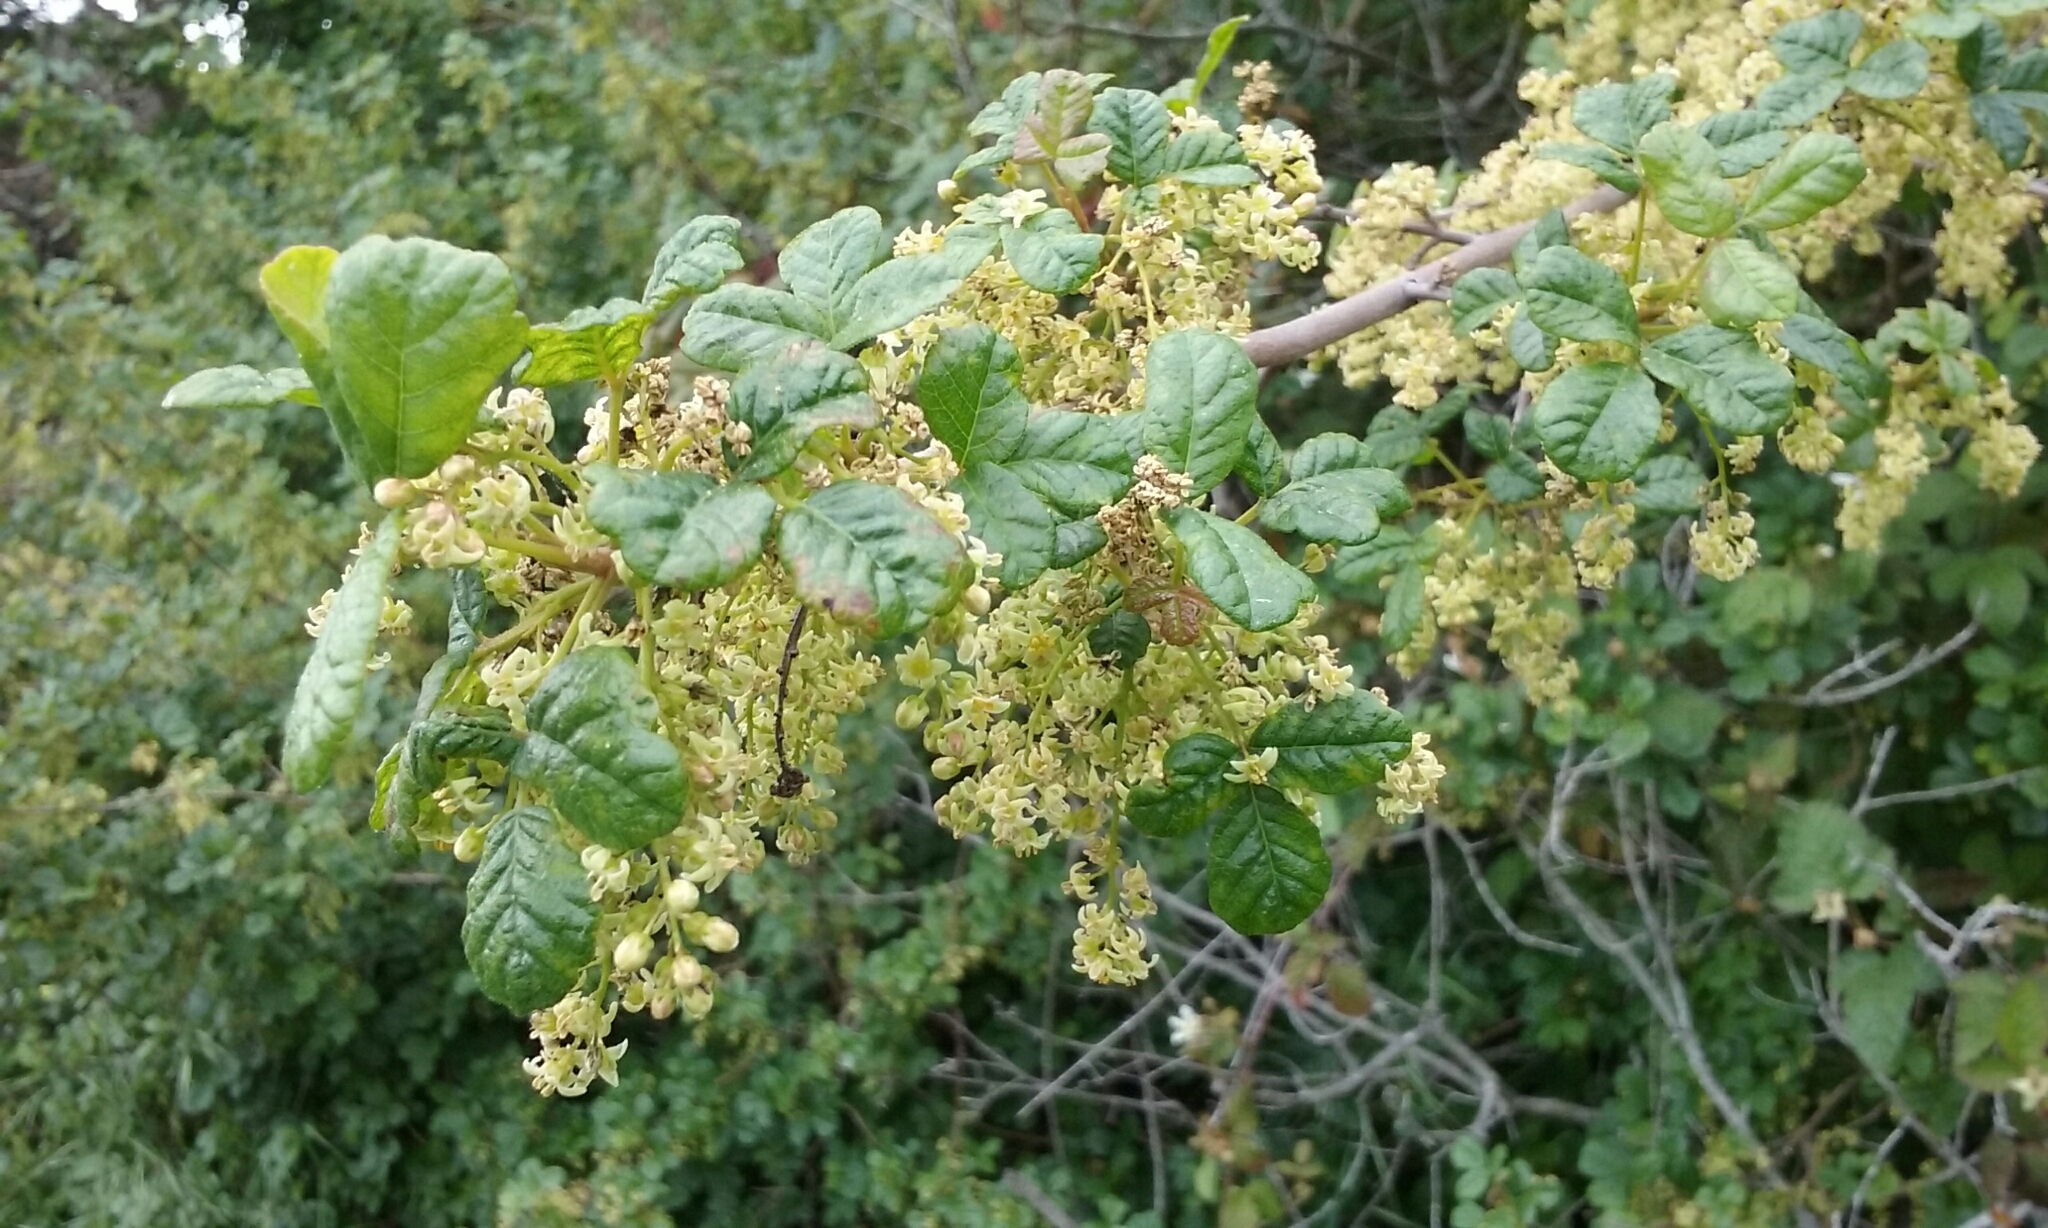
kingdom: Plantae
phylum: Tracheophyta
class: Magnoliopsida
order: Sapindales
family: Anacardiaceae
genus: Toxicodendron
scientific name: Toxicodendron diversilobum
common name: Pacific poison-oak
